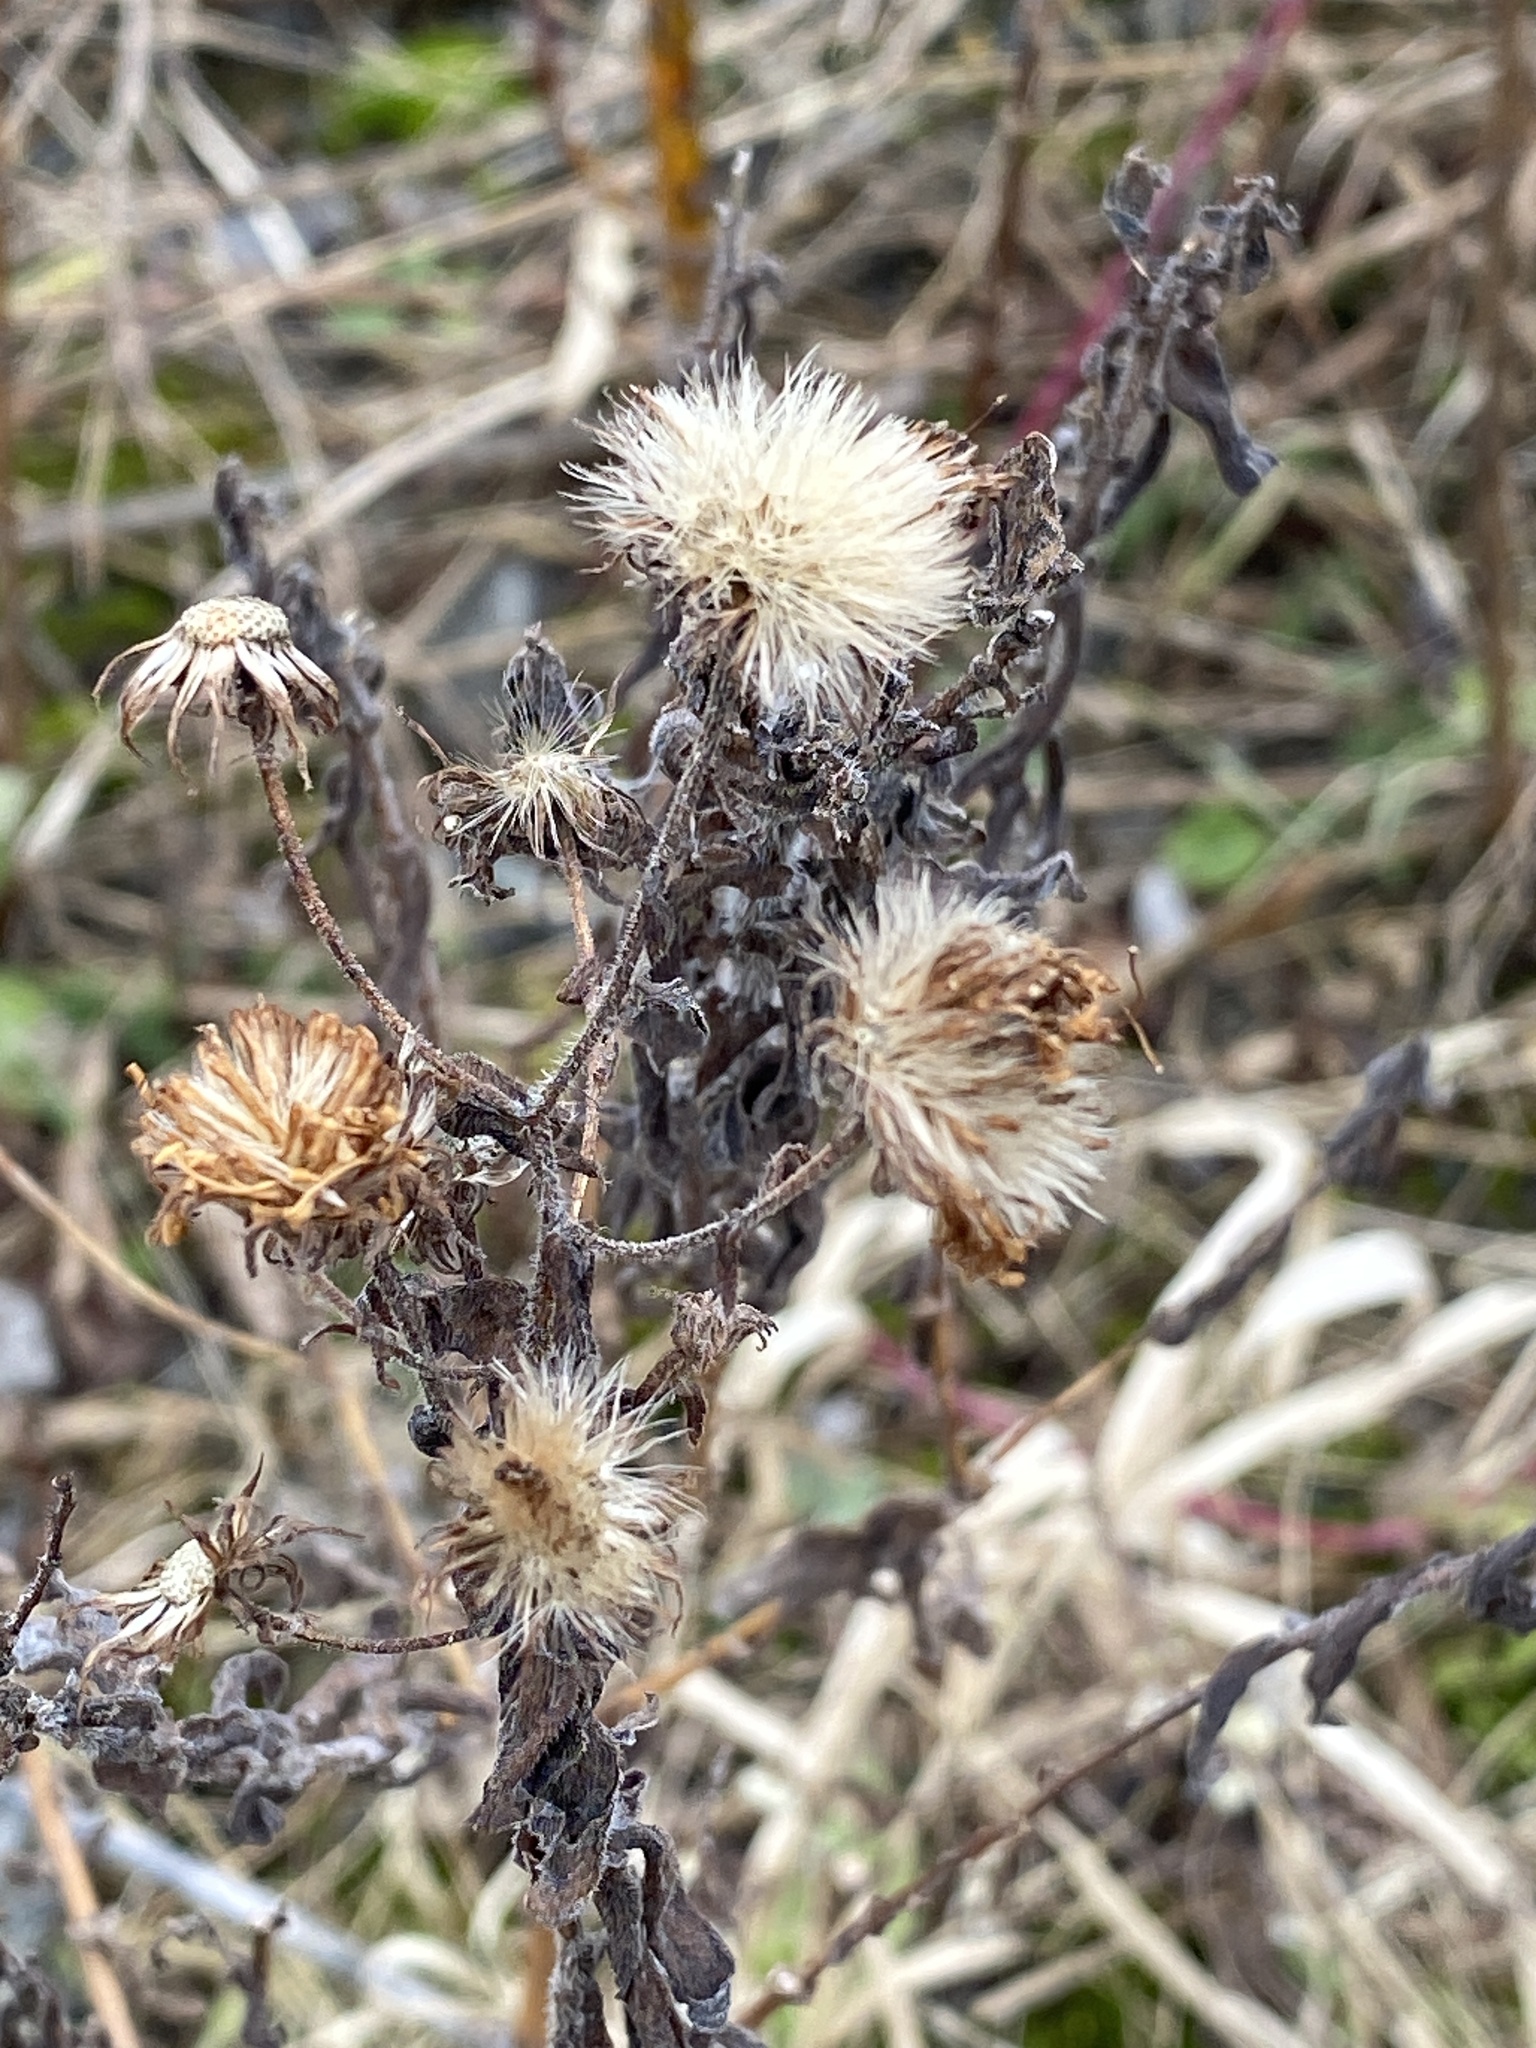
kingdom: Plantae
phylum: Tracheophyta
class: Magnoliopsida
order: Asterales
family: Asteraceae
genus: Symphyotrichum
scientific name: Symphyotrichum novae-angliae
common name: Michaelmas daisy
